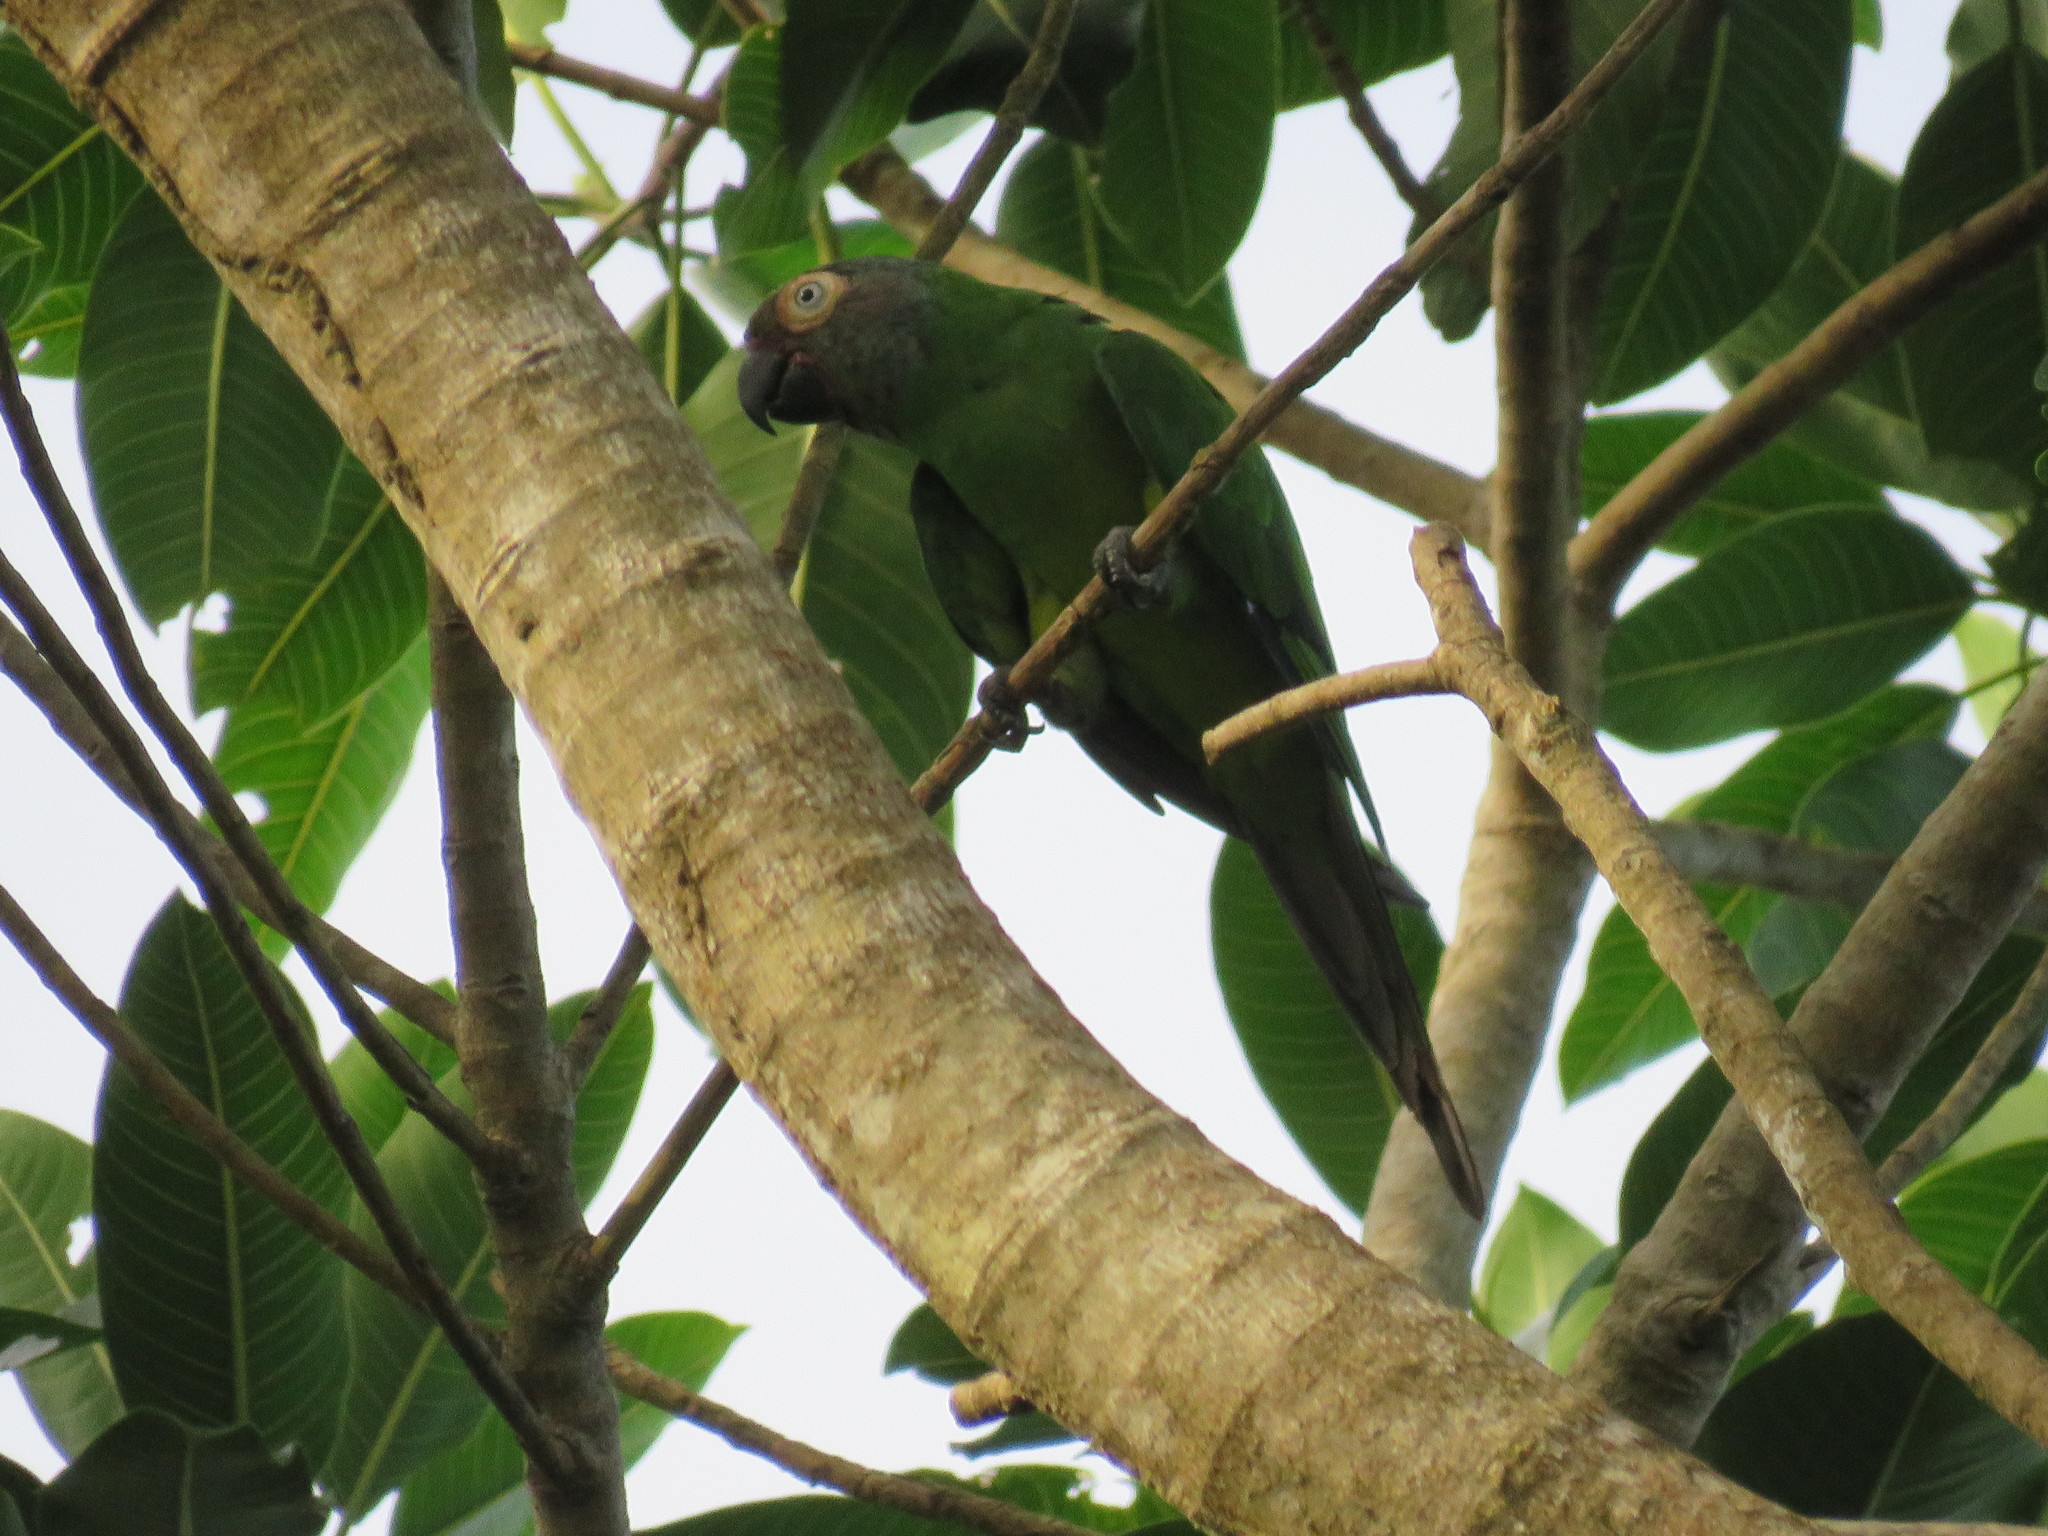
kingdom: Animalia
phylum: Chordata
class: Aves
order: Psittaciformes
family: Psittacidae
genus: Aratinga
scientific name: Aratinga weddellii
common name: Dusky-headed parakeet
